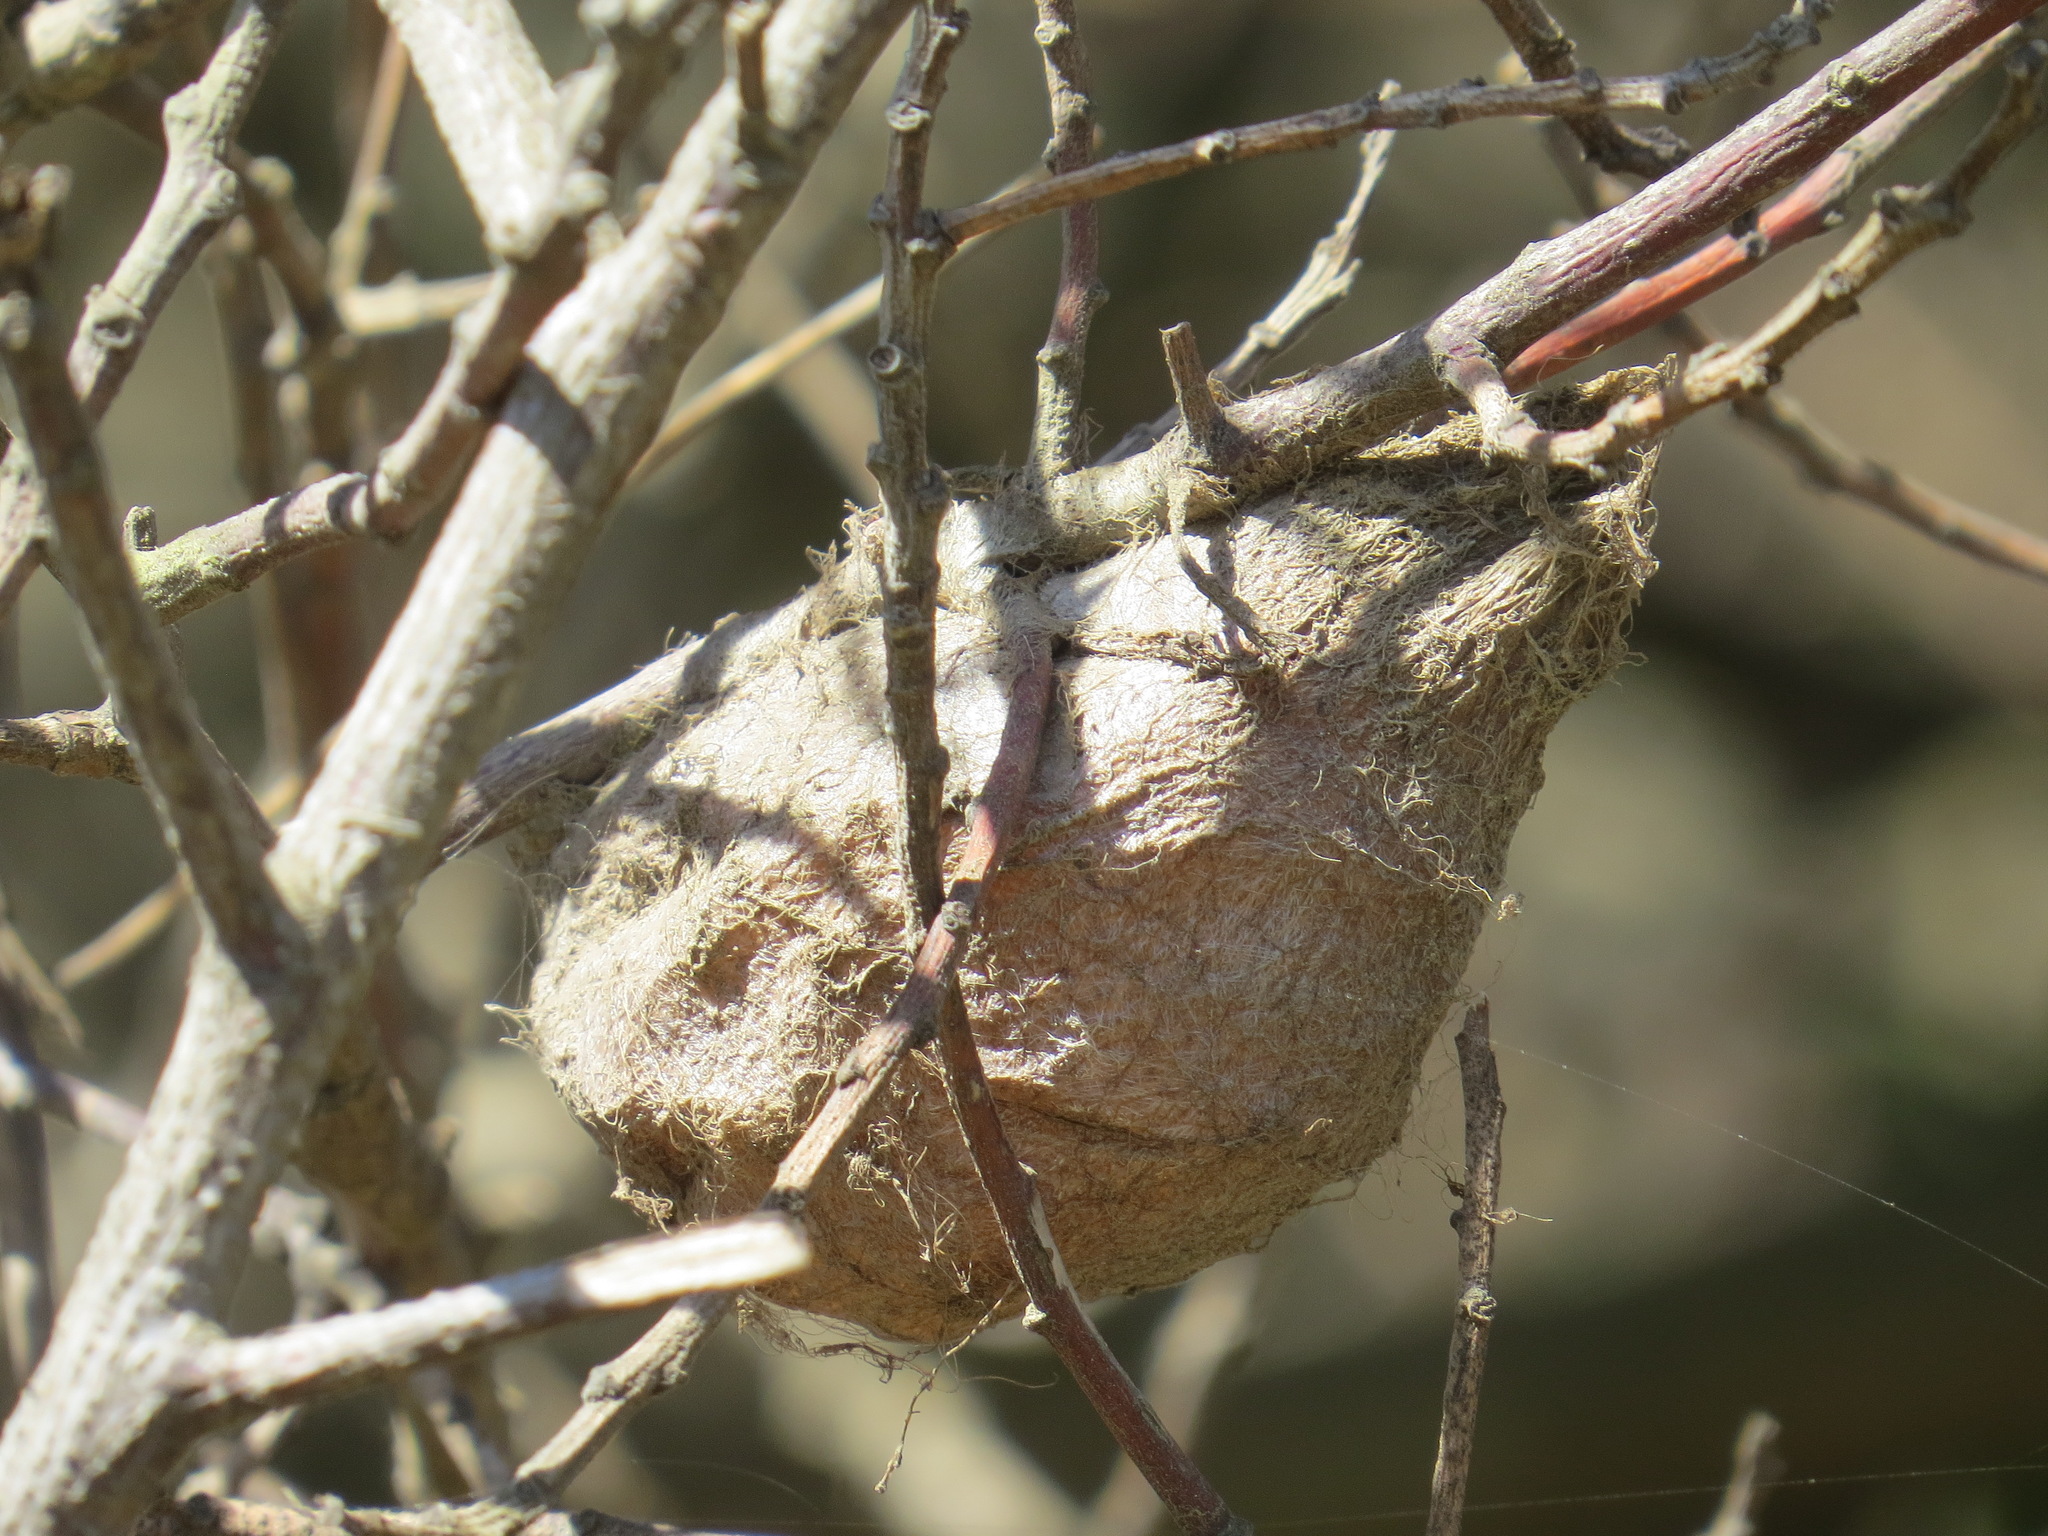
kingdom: Animalia
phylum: Arthropoda
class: Insecta
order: Lepidoptera
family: Saturniidae
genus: Hyalophora
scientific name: Hyalophora euryalus
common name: Ceanothus silkmoth
